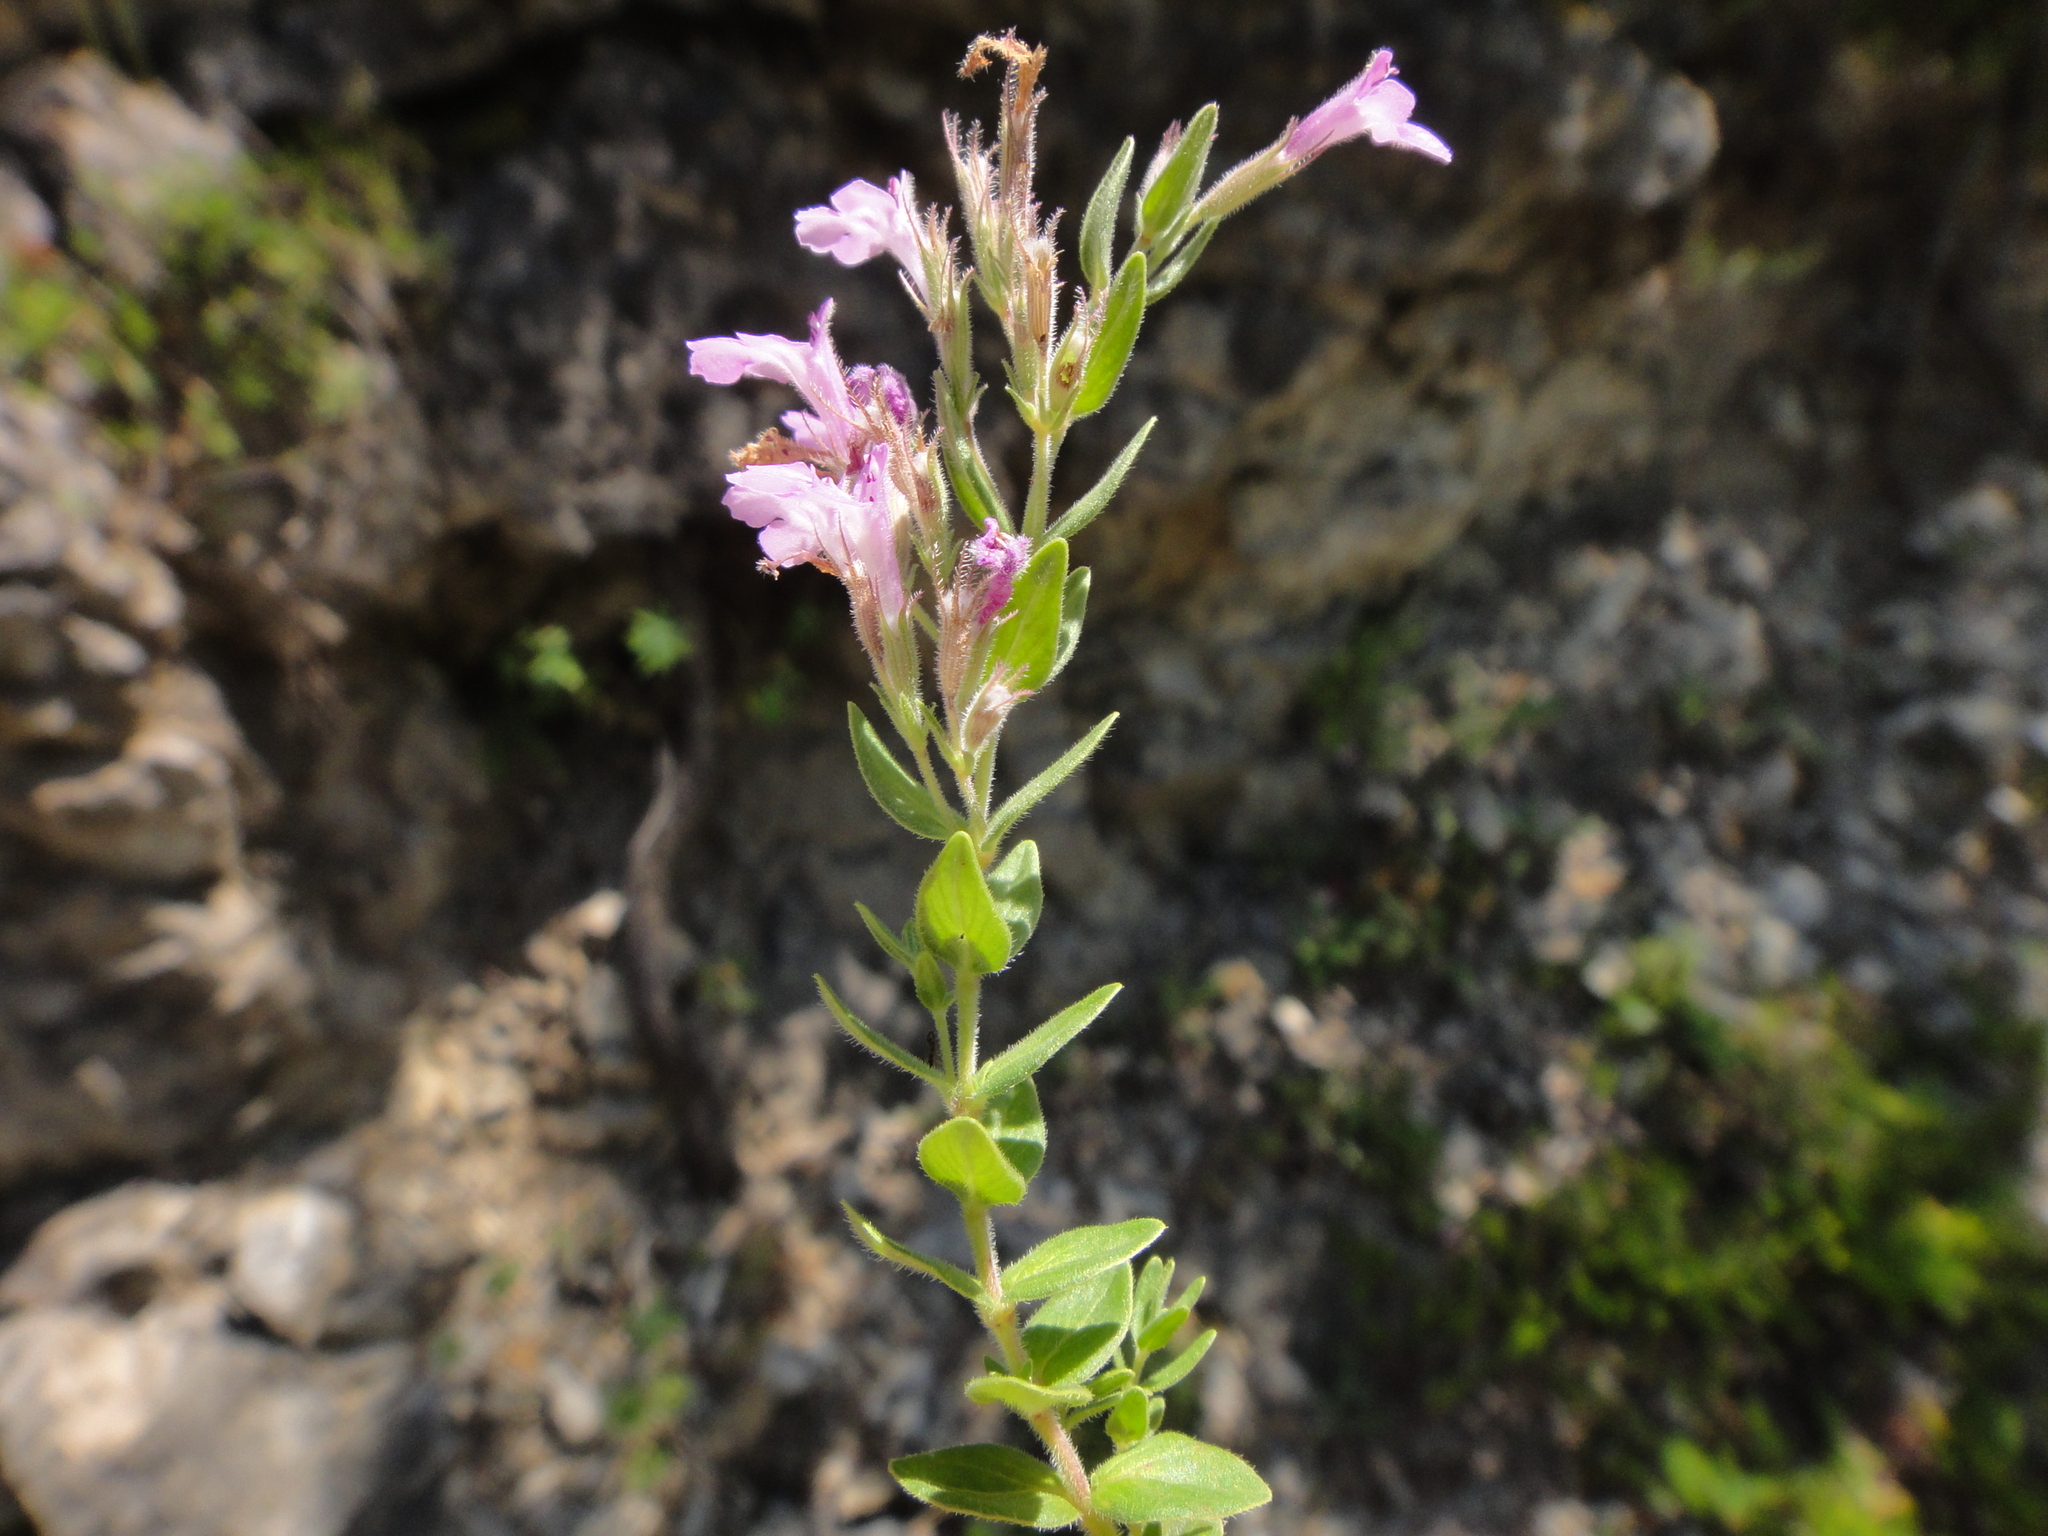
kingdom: Plantae
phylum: Tracheophyta
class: Magnoliopsida
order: Lamiales
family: Lamiaceae
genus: Micromeria
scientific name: Micromeria croatica
